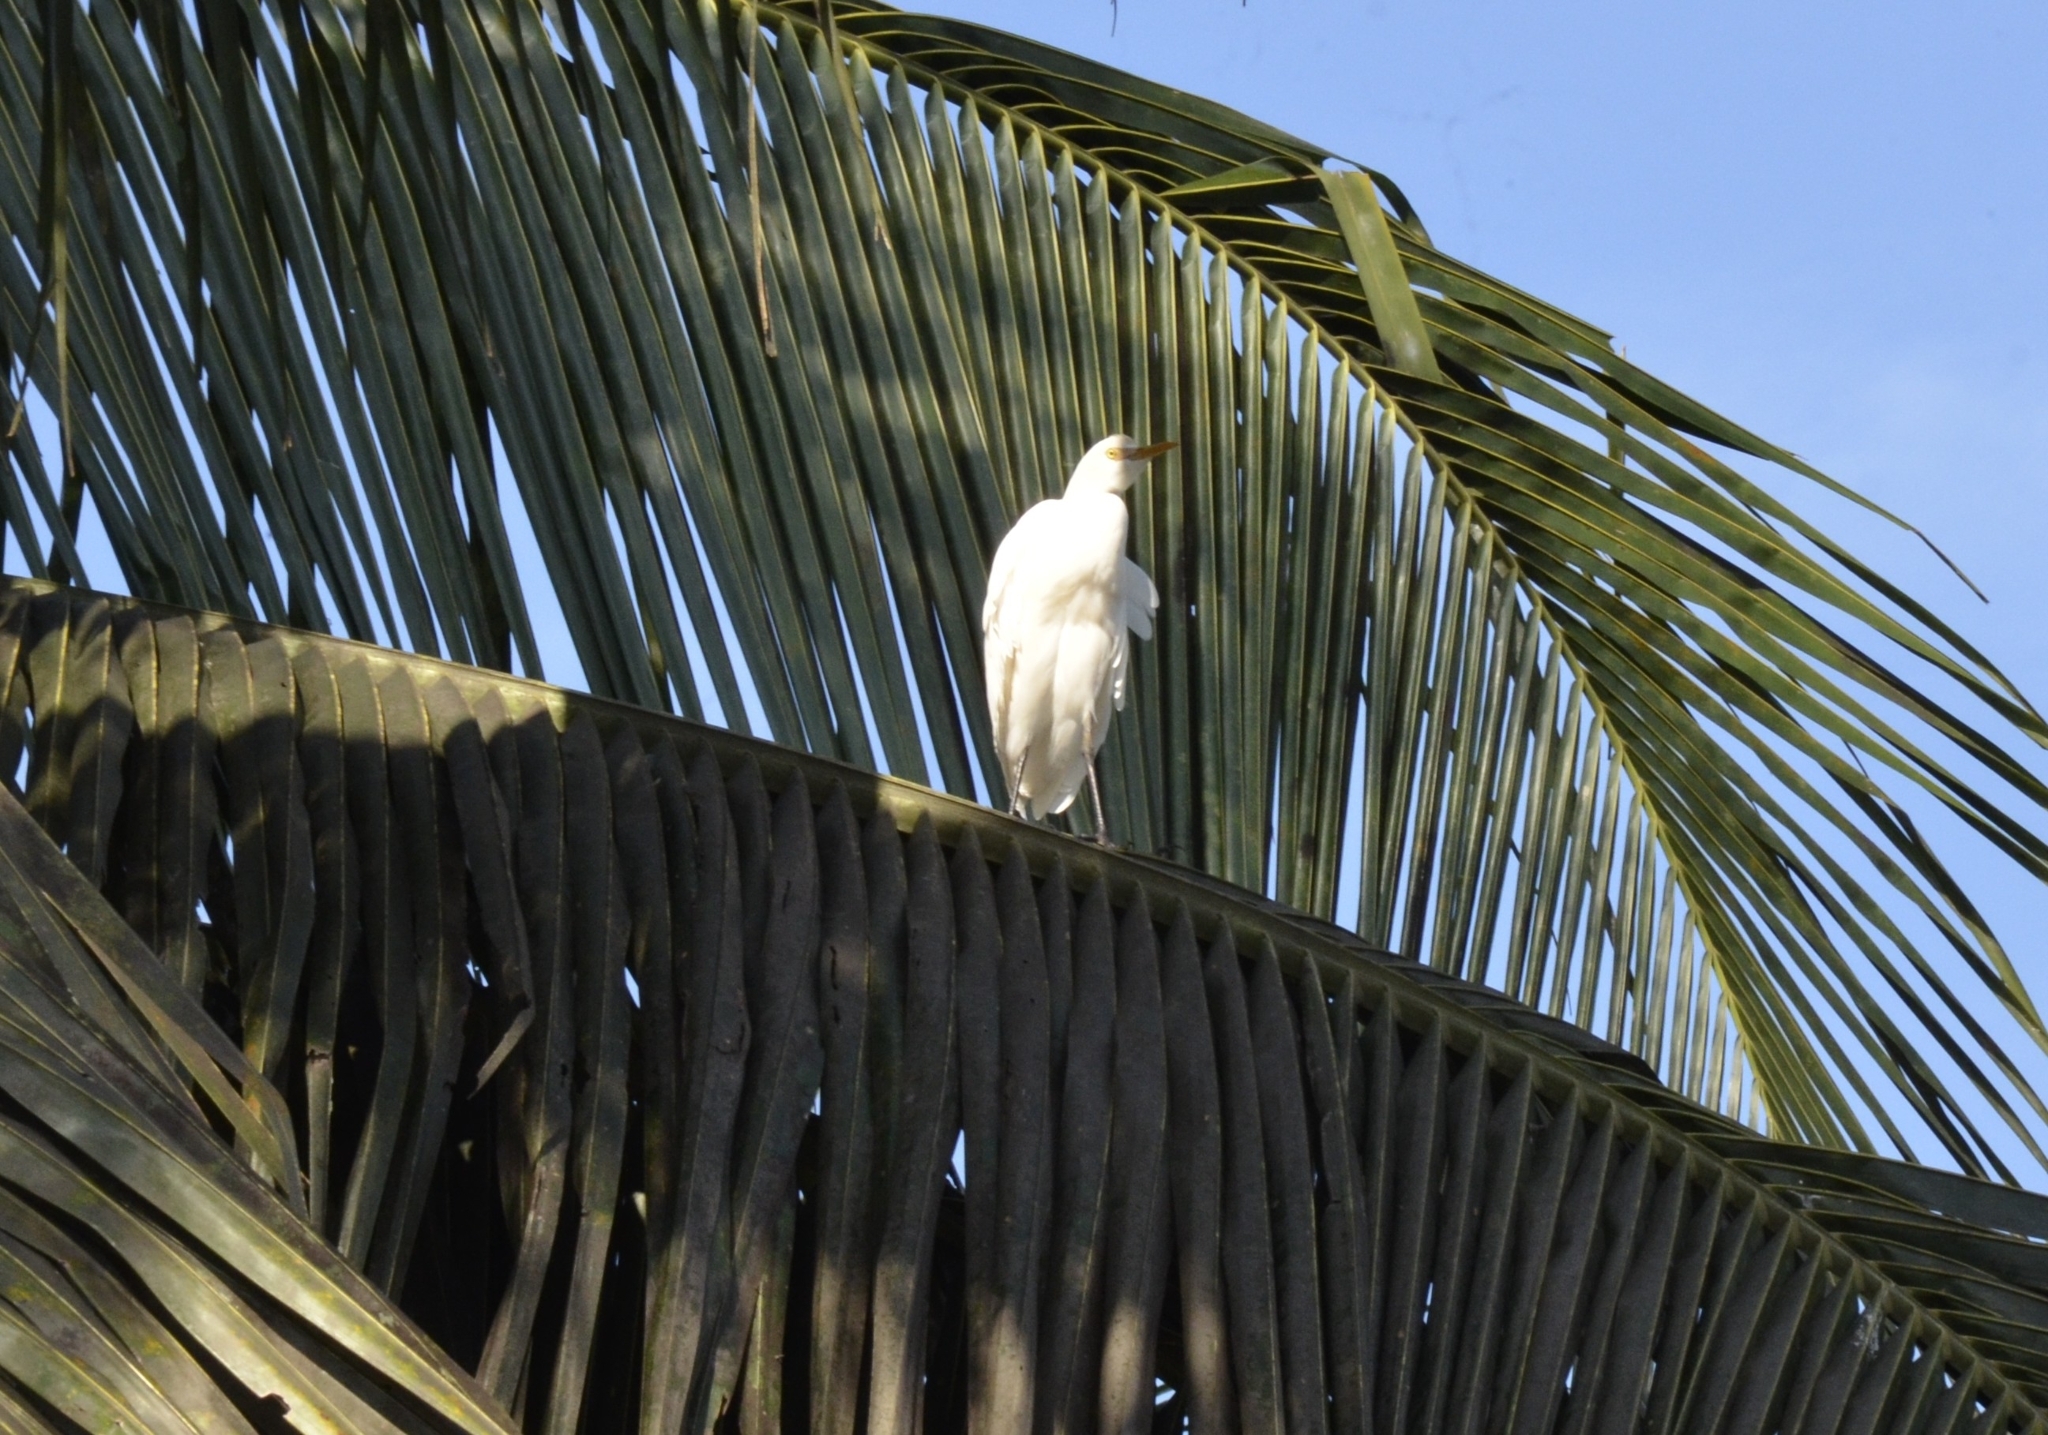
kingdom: Animalia
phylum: Chordata
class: Aves
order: Pelecaniformes
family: Ardeidae
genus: Bubulcus
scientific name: Bubulcus coromandus
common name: Eastern cattle egret
